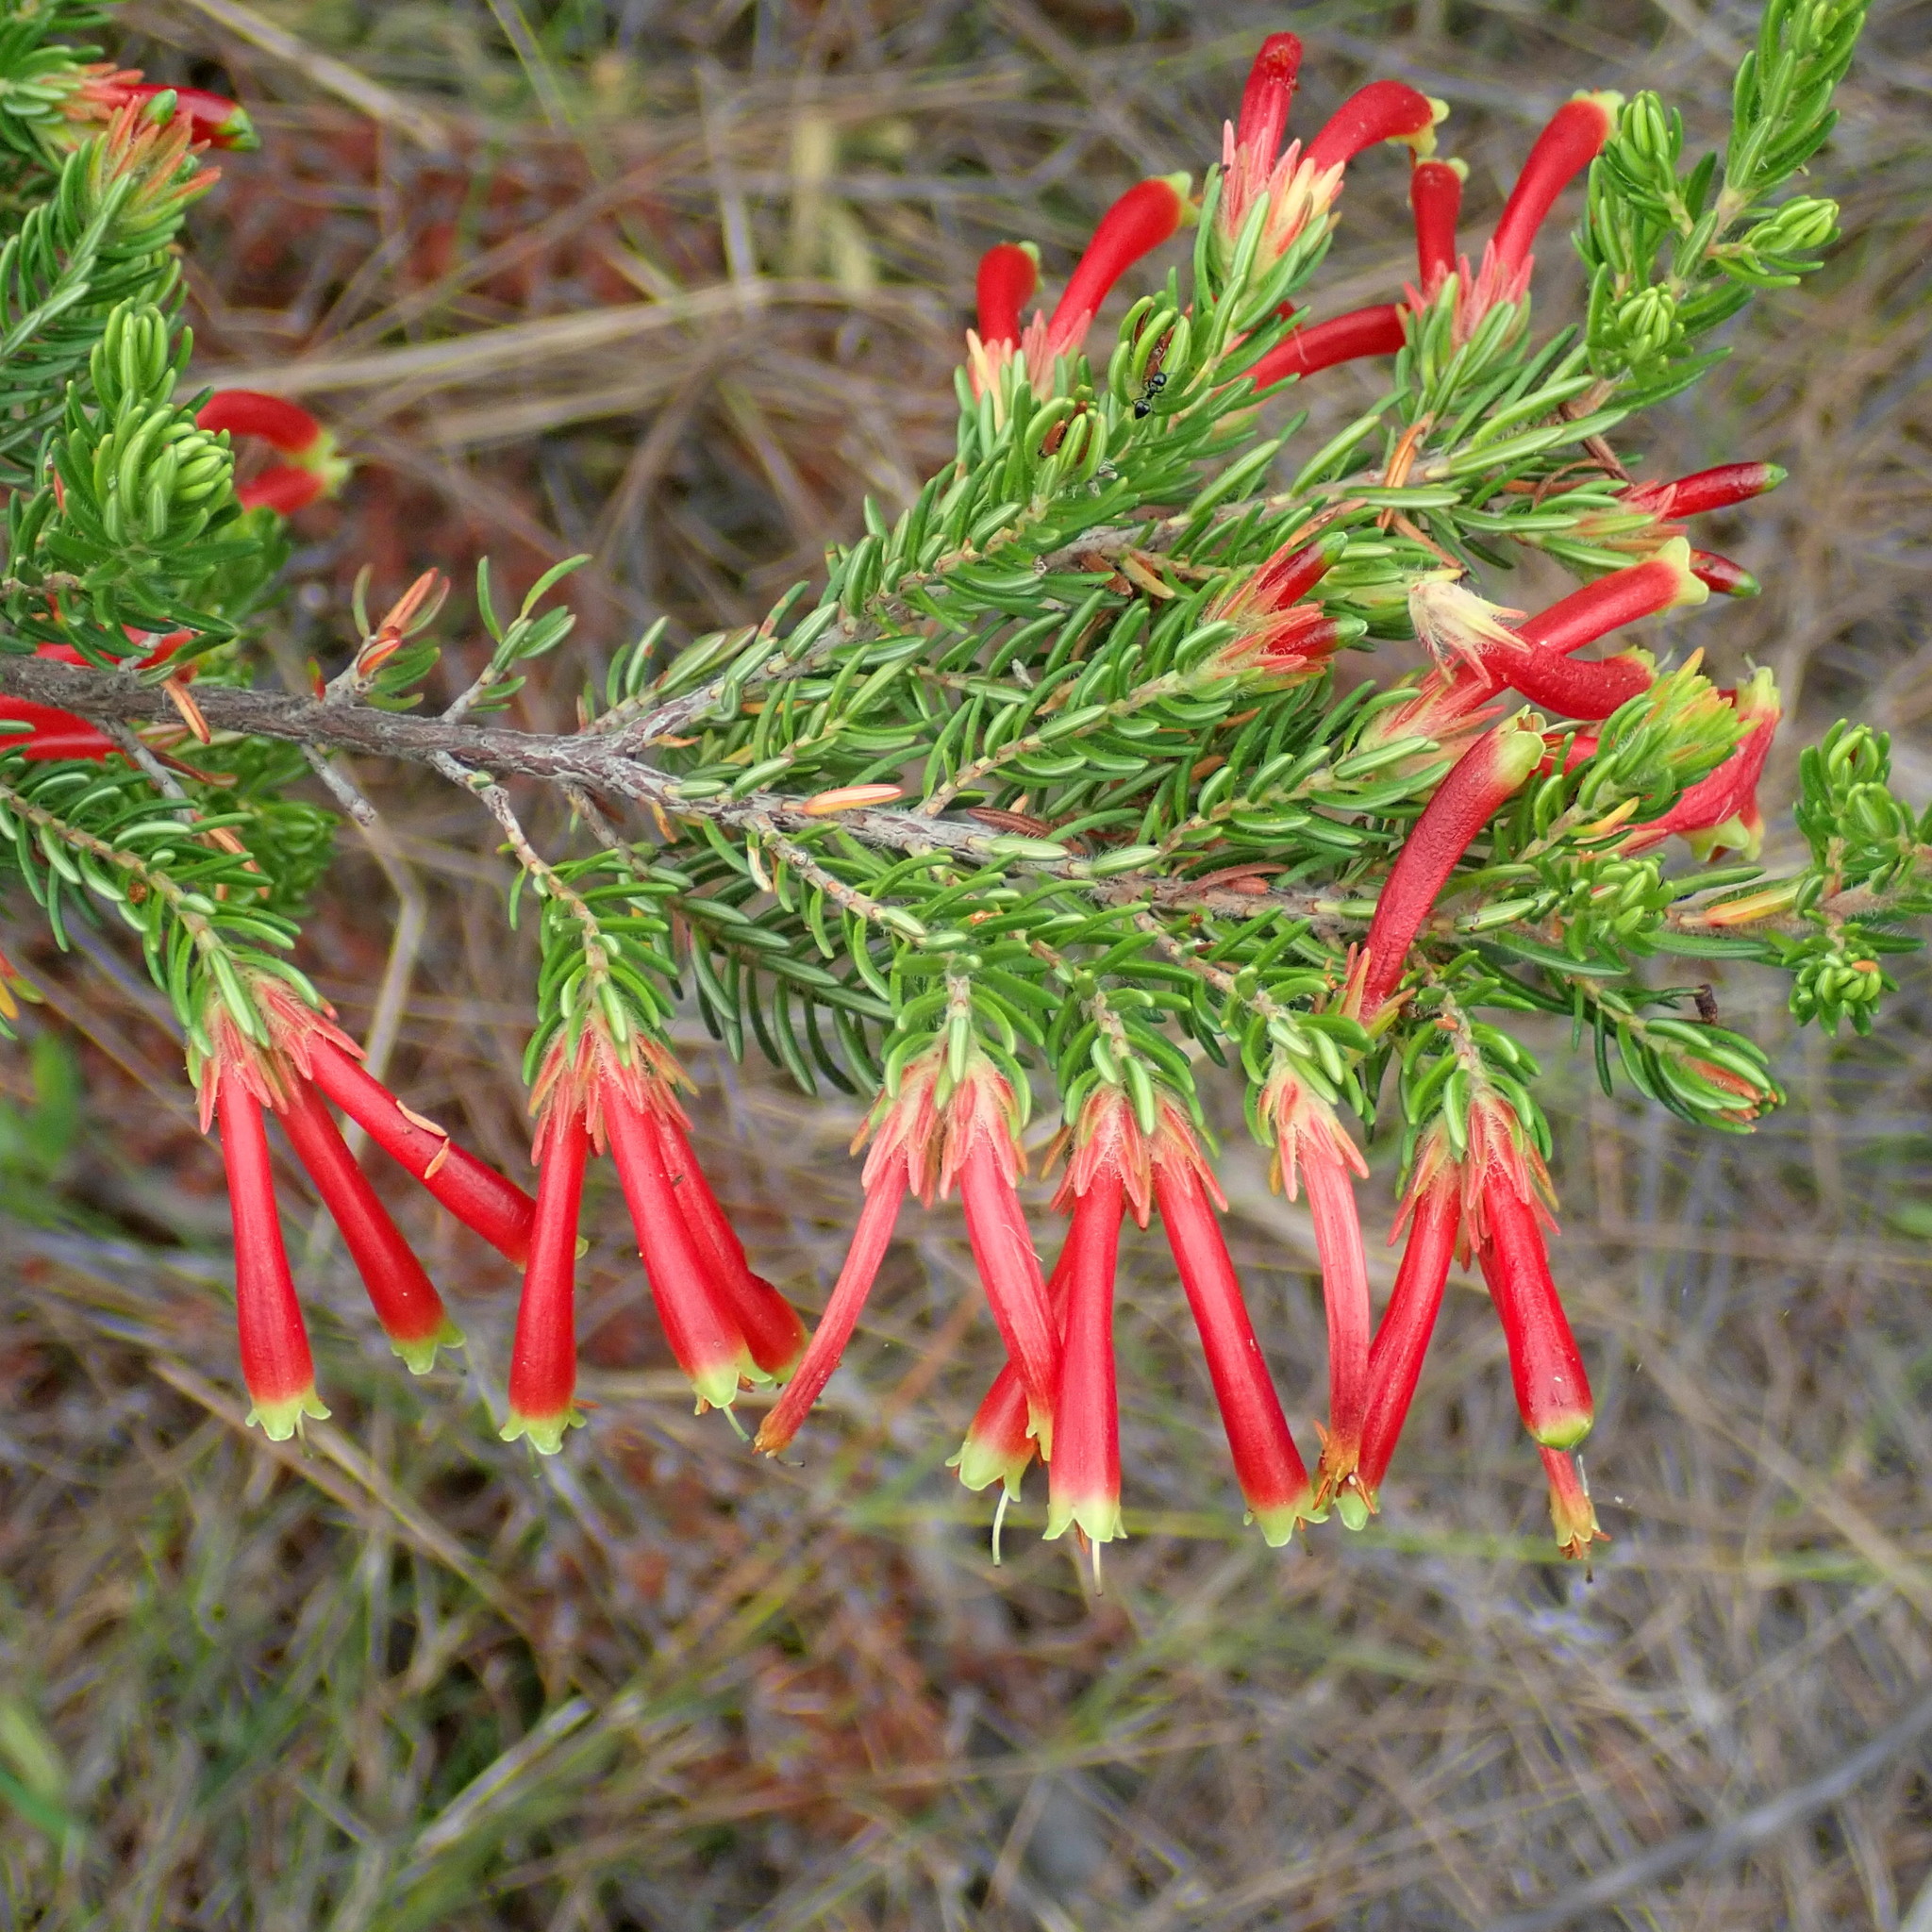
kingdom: Plantae
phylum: Tracheophyta
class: Magnoliopsida
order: Ericales
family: Ericaceae
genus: Erica
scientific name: Erica discolor
